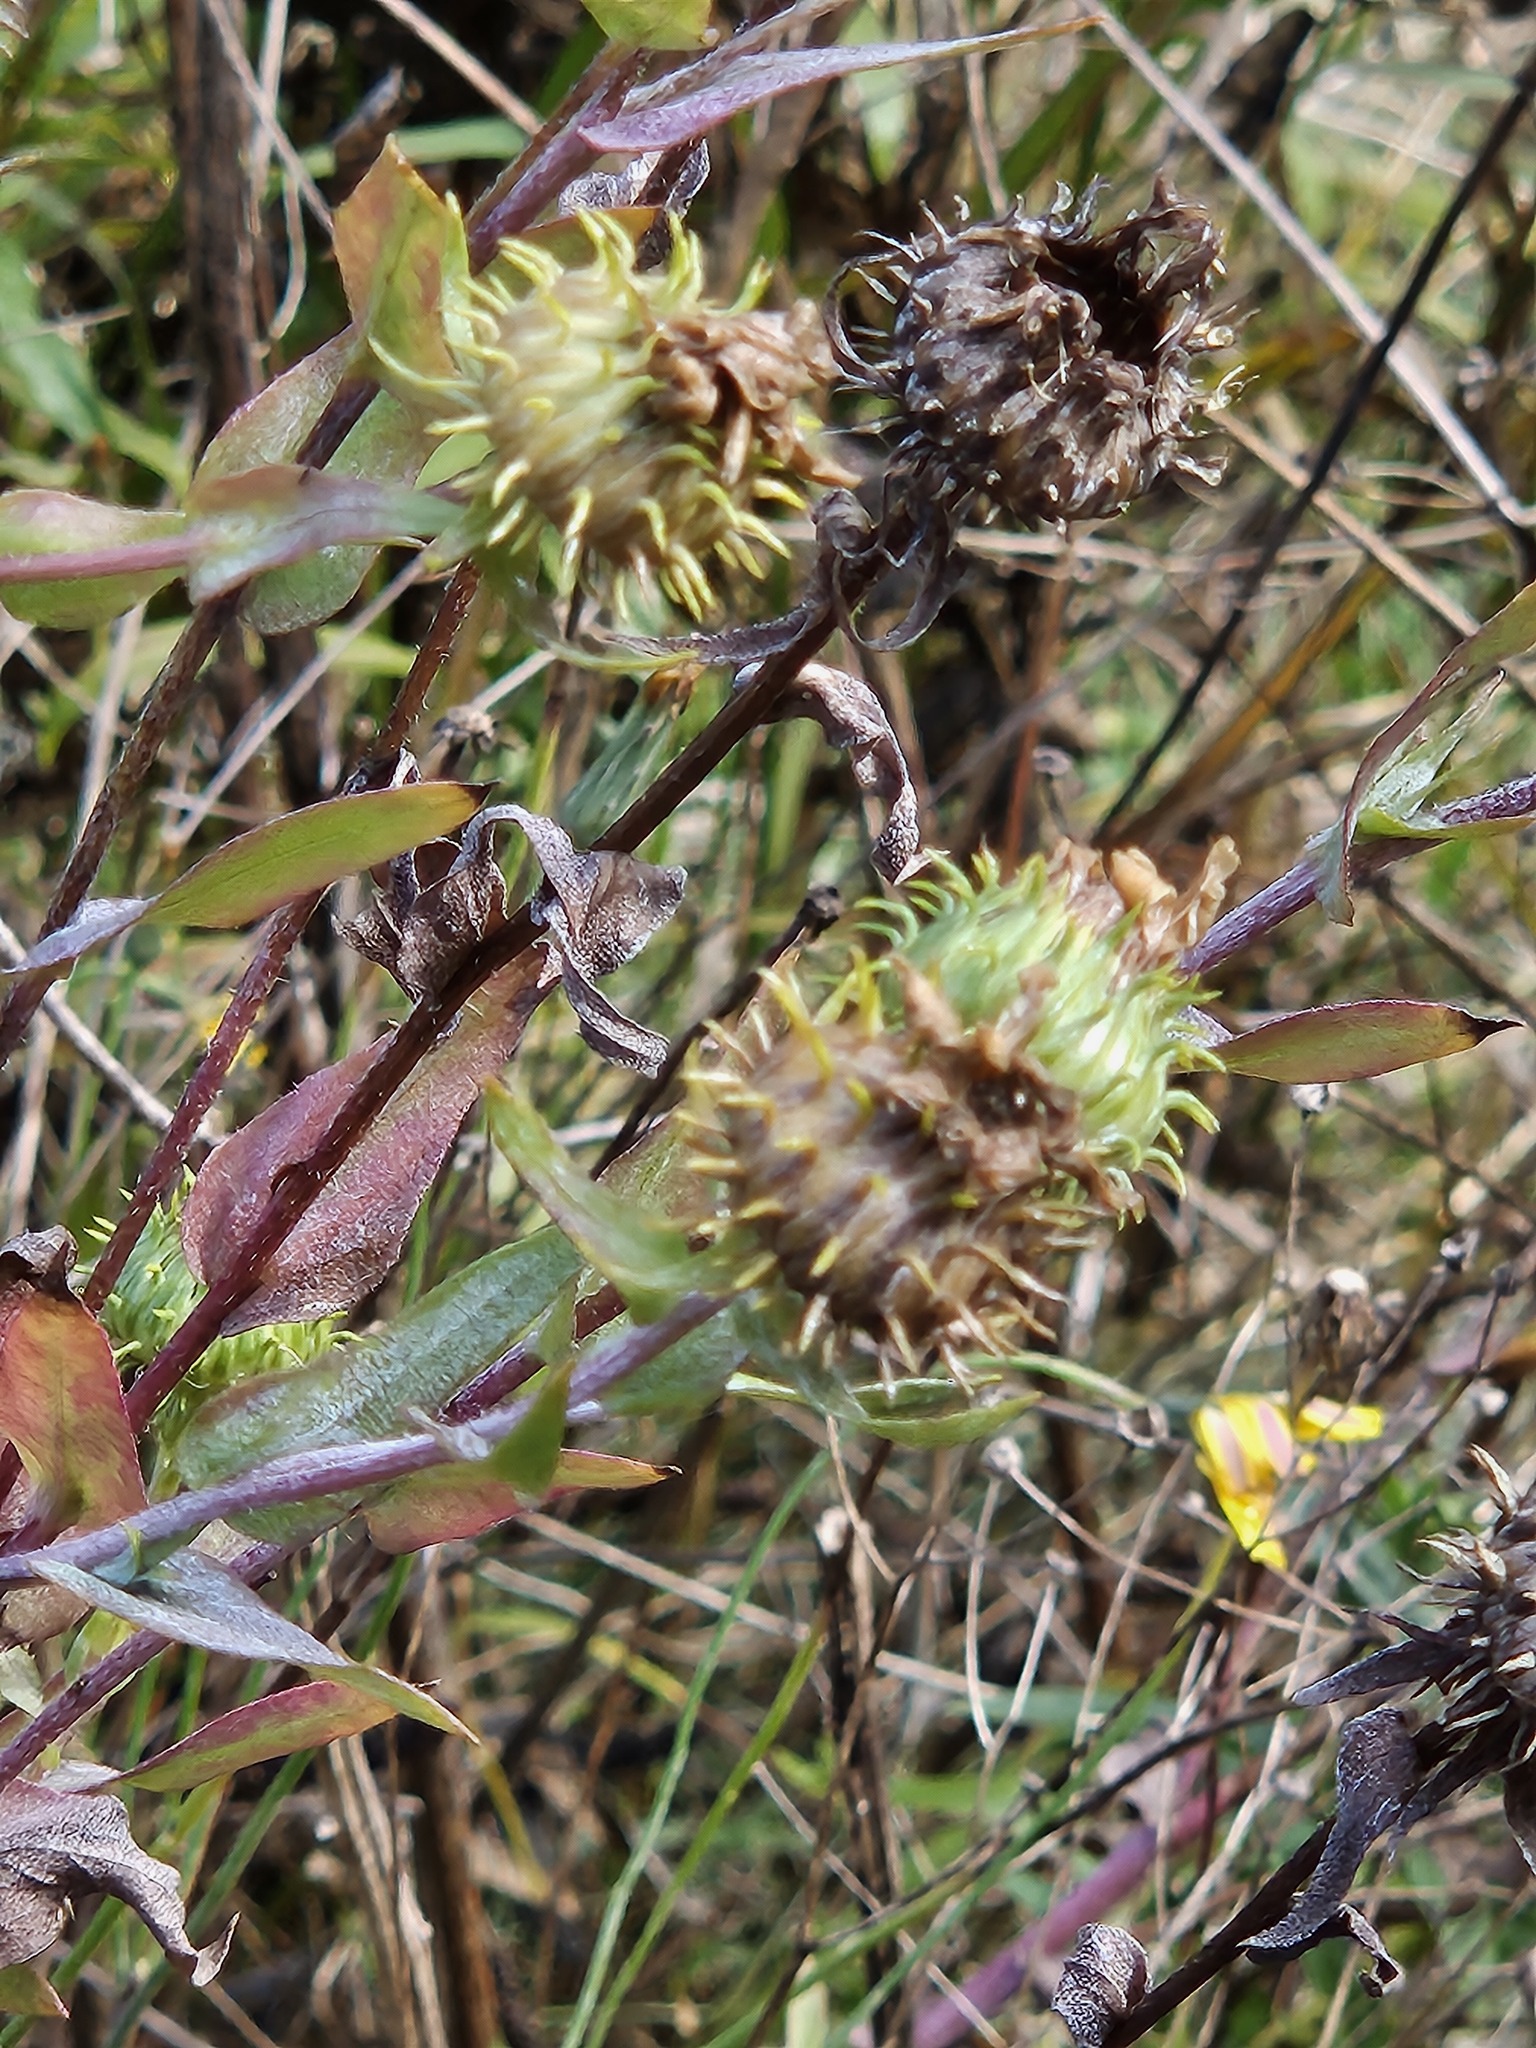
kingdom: Plantae
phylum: Tracheophyta
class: Magnoliopsida
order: Asterales
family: Asteraceae
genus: Grindelia
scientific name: Grindelia integrifolia
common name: Puget sound gumweed
